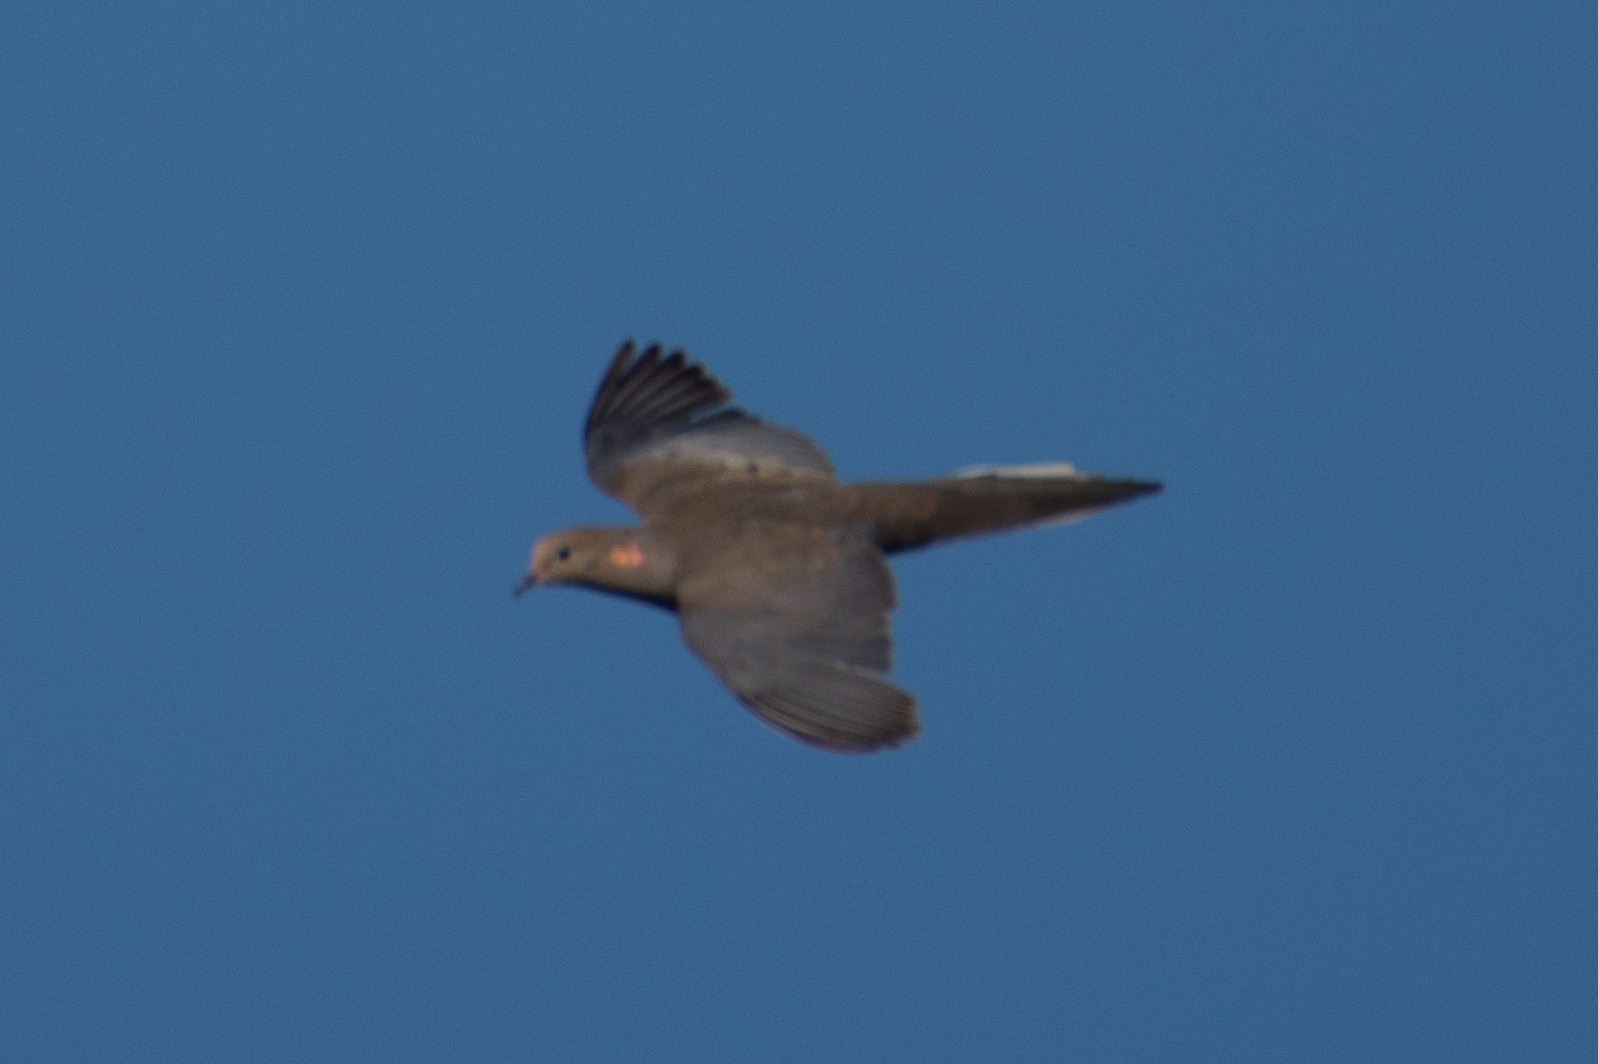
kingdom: Animalia
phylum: Chordata
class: Aves
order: Columbiformes
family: Columbidae
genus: Zenaida
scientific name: Zenaida macroura
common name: Mourning dove
